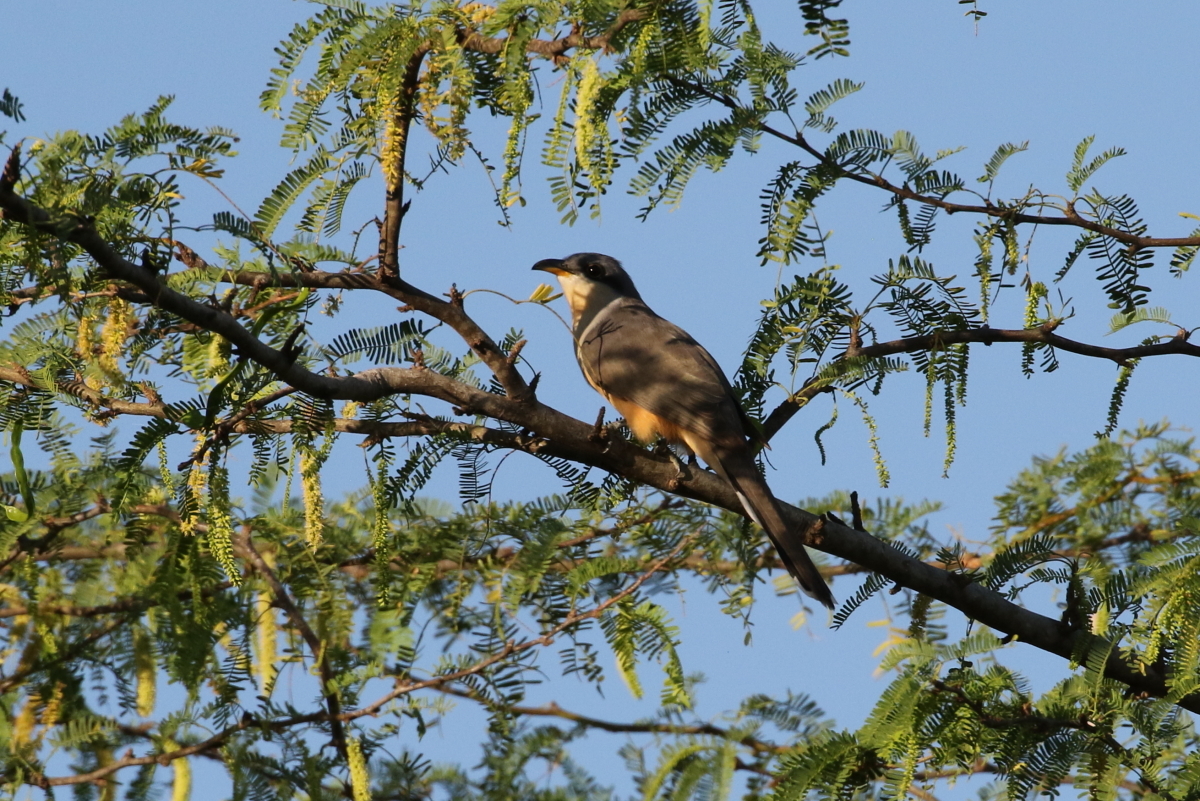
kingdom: Animalia
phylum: Chordata
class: Aves
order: Cuculiformes
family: Cuculidae
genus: Coccyzus
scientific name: Coccyzus minor
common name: Mangrove cuckoo
